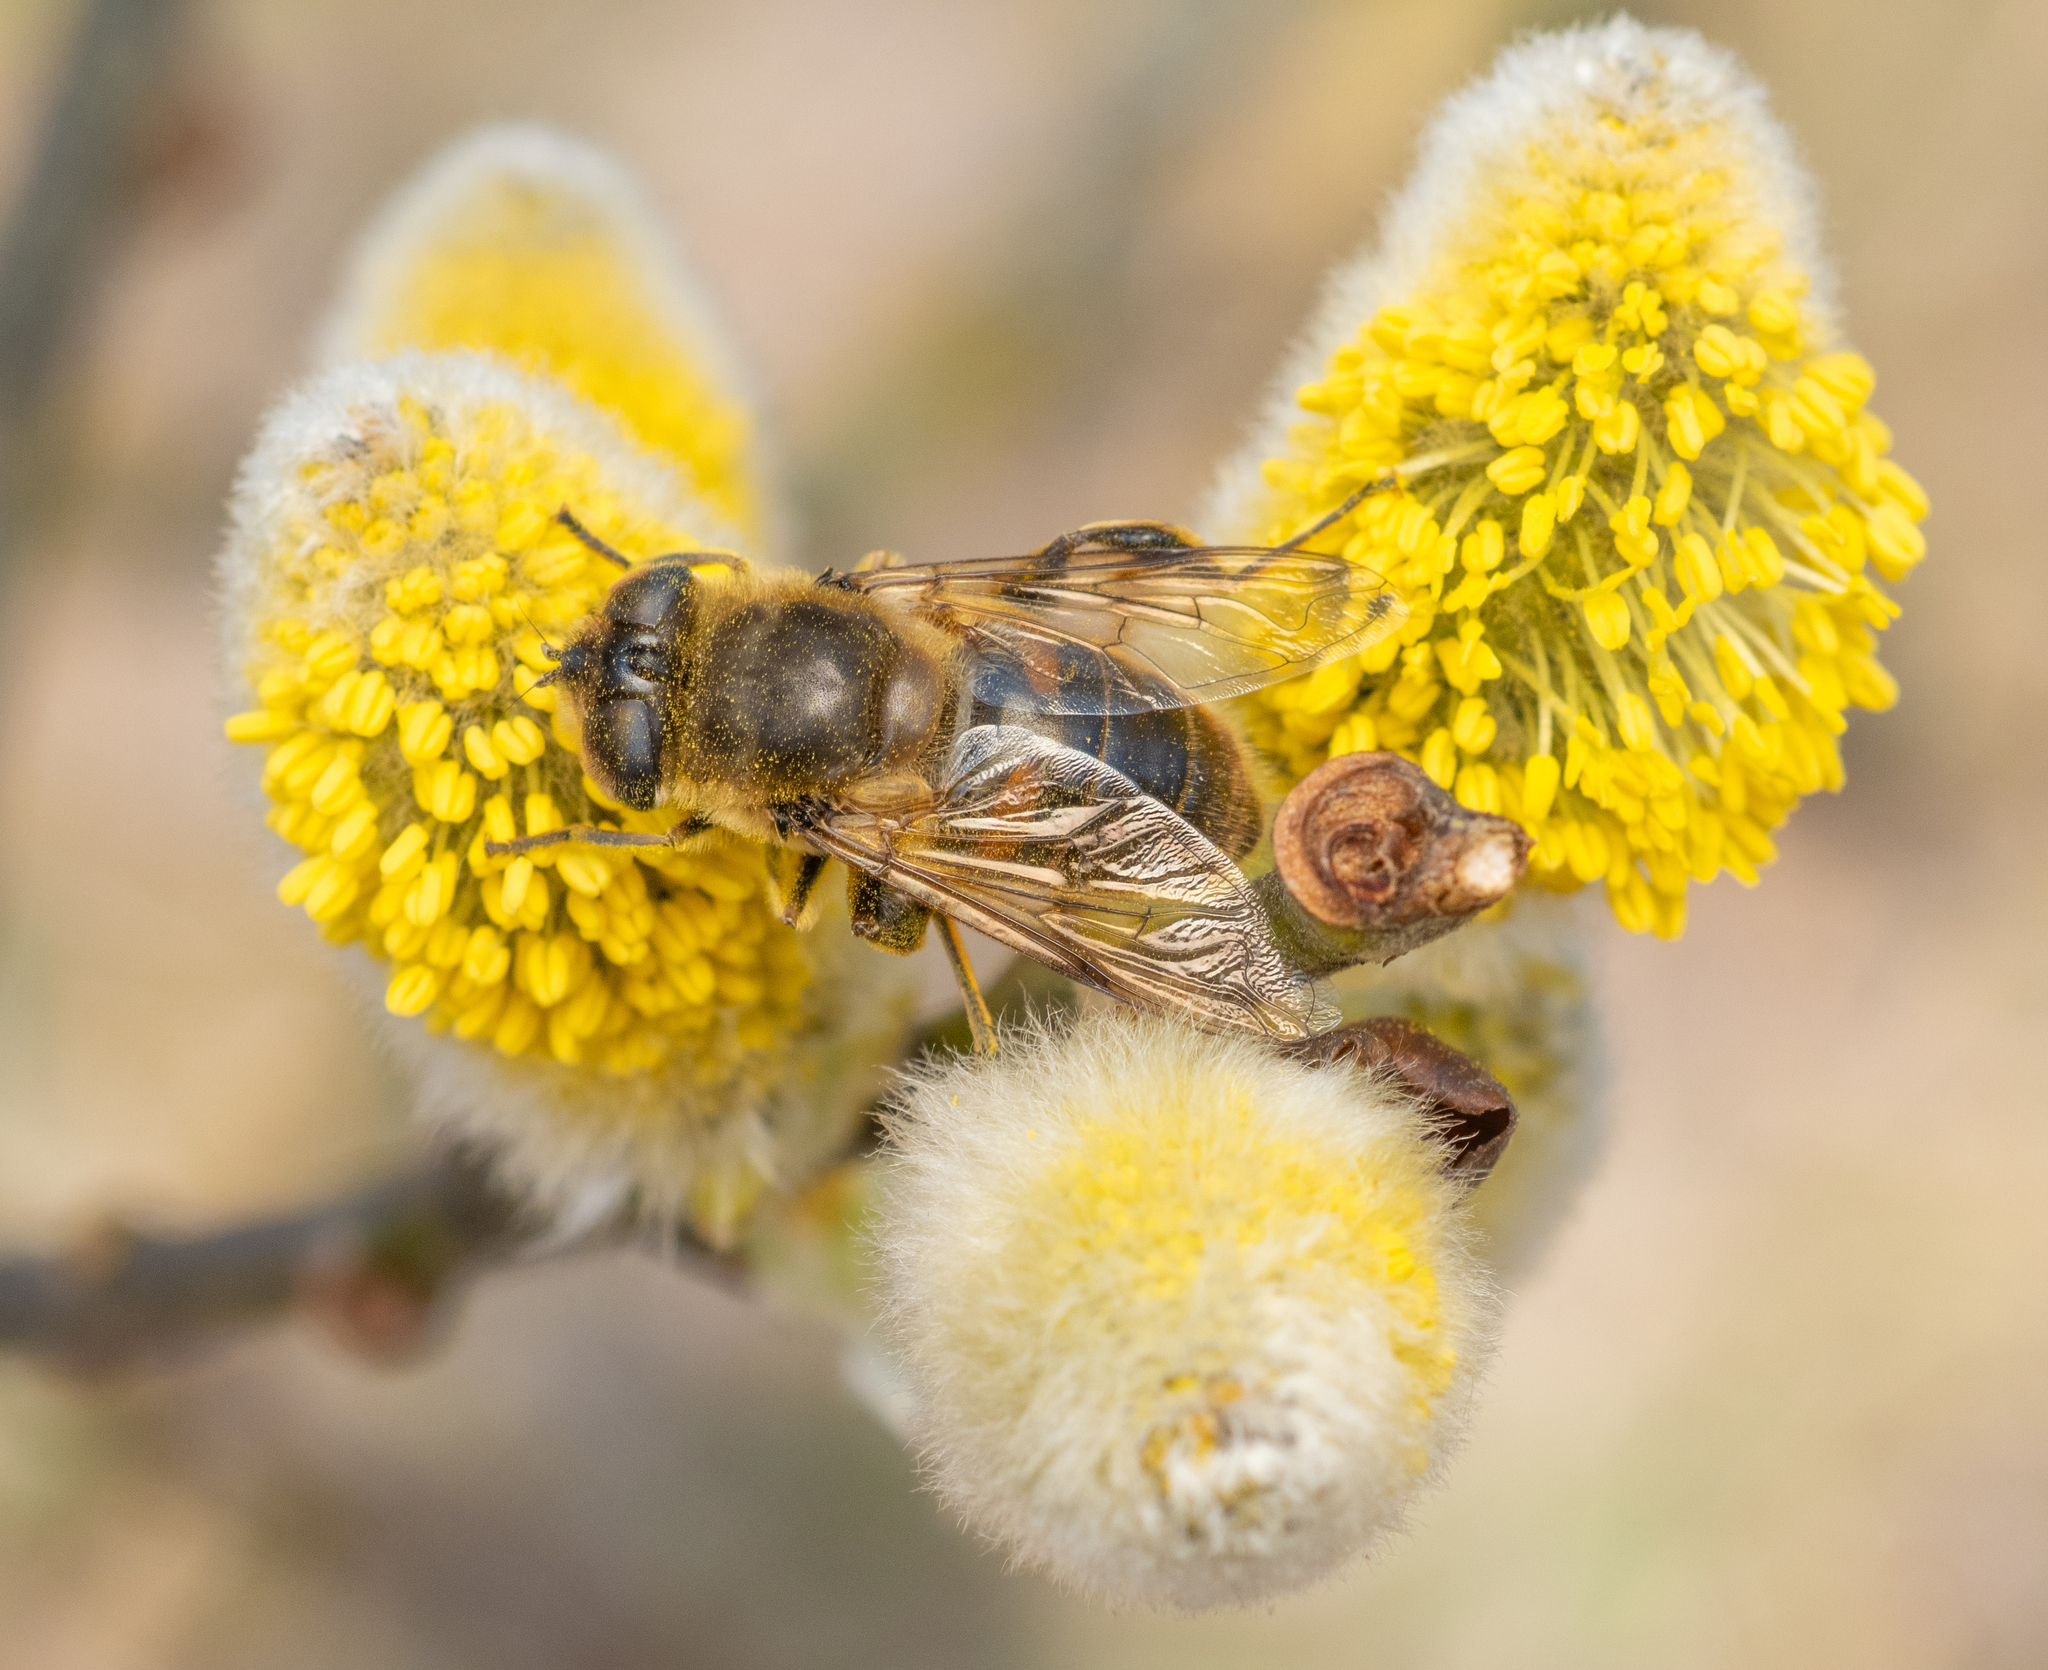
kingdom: Animalia
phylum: Arthropoda
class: Insecta
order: Diptera
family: Syrphidae
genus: Eristalis
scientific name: Eristalis tenax
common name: Drone fly
